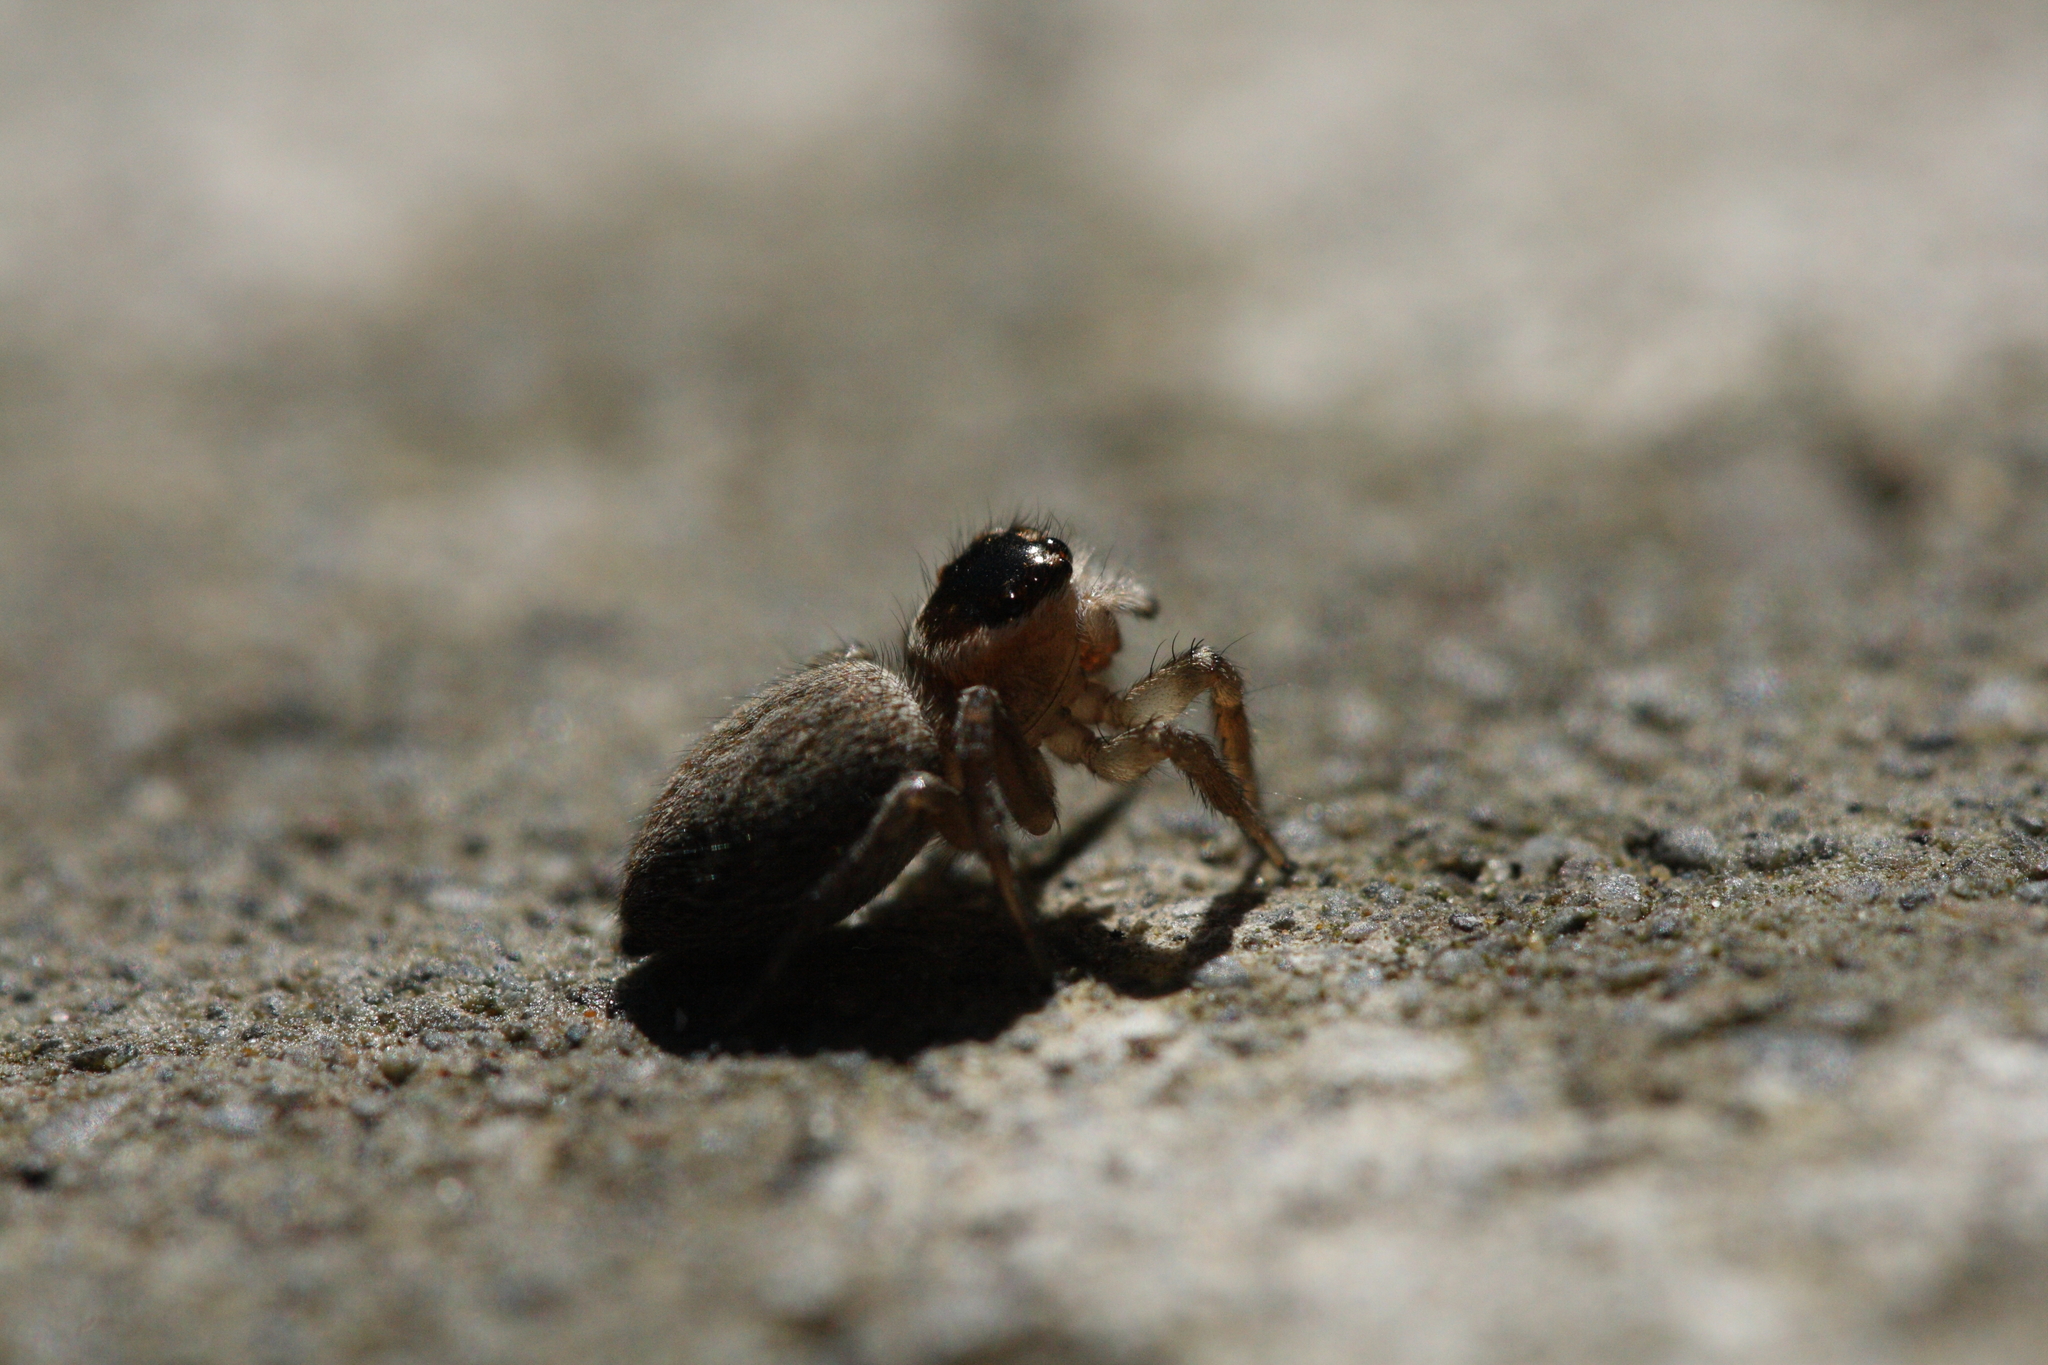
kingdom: Animalia
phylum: Arthropoda
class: Arachnida
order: Araneae
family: Salticidae
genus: Maratus
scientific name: Maratus griseus
